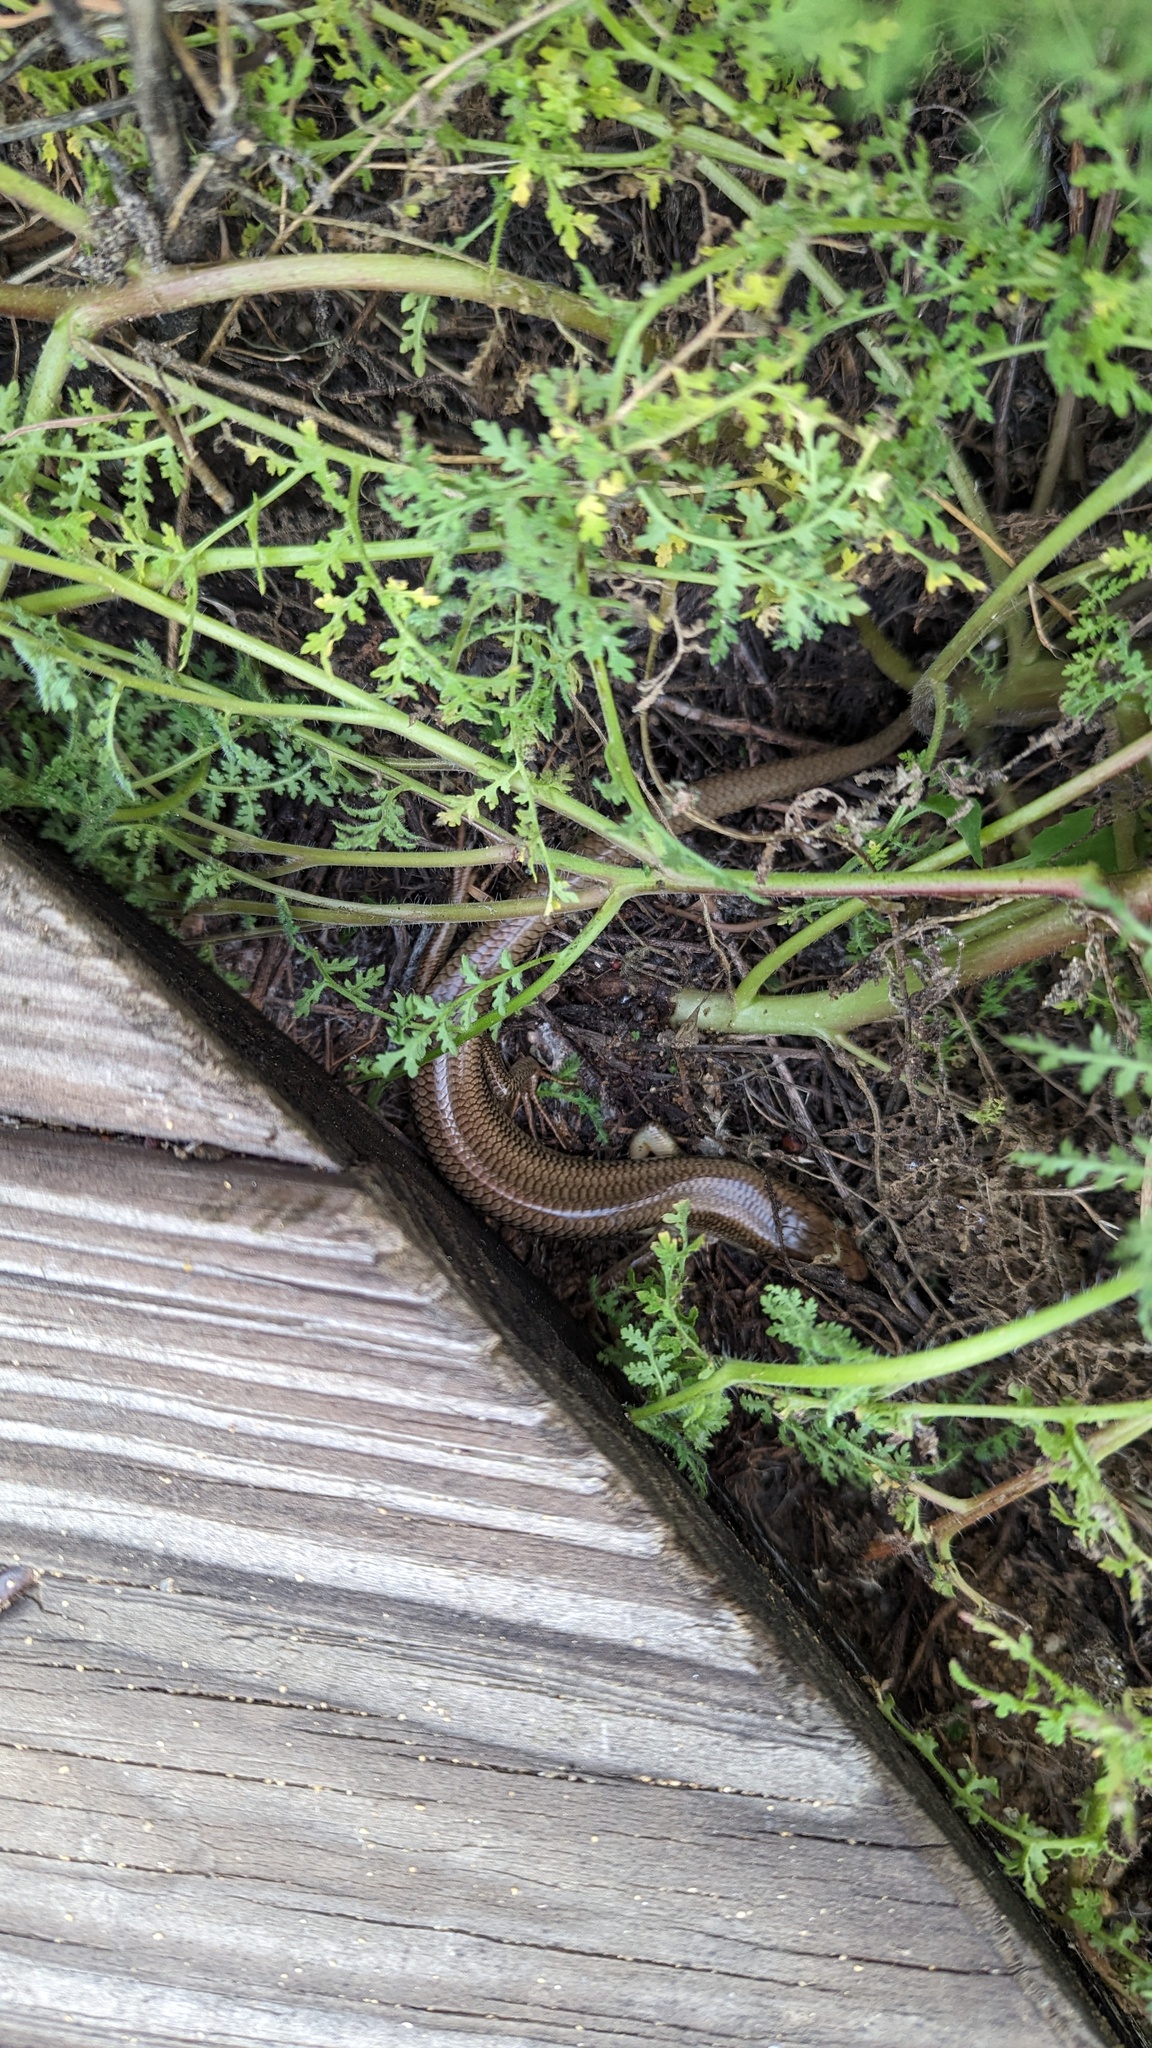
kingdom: Animalia
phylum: Chordata
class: Squamata
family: Scincidae
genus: Plestiodon
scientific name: Plestiodon gilberti
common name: Gilbert's skink
